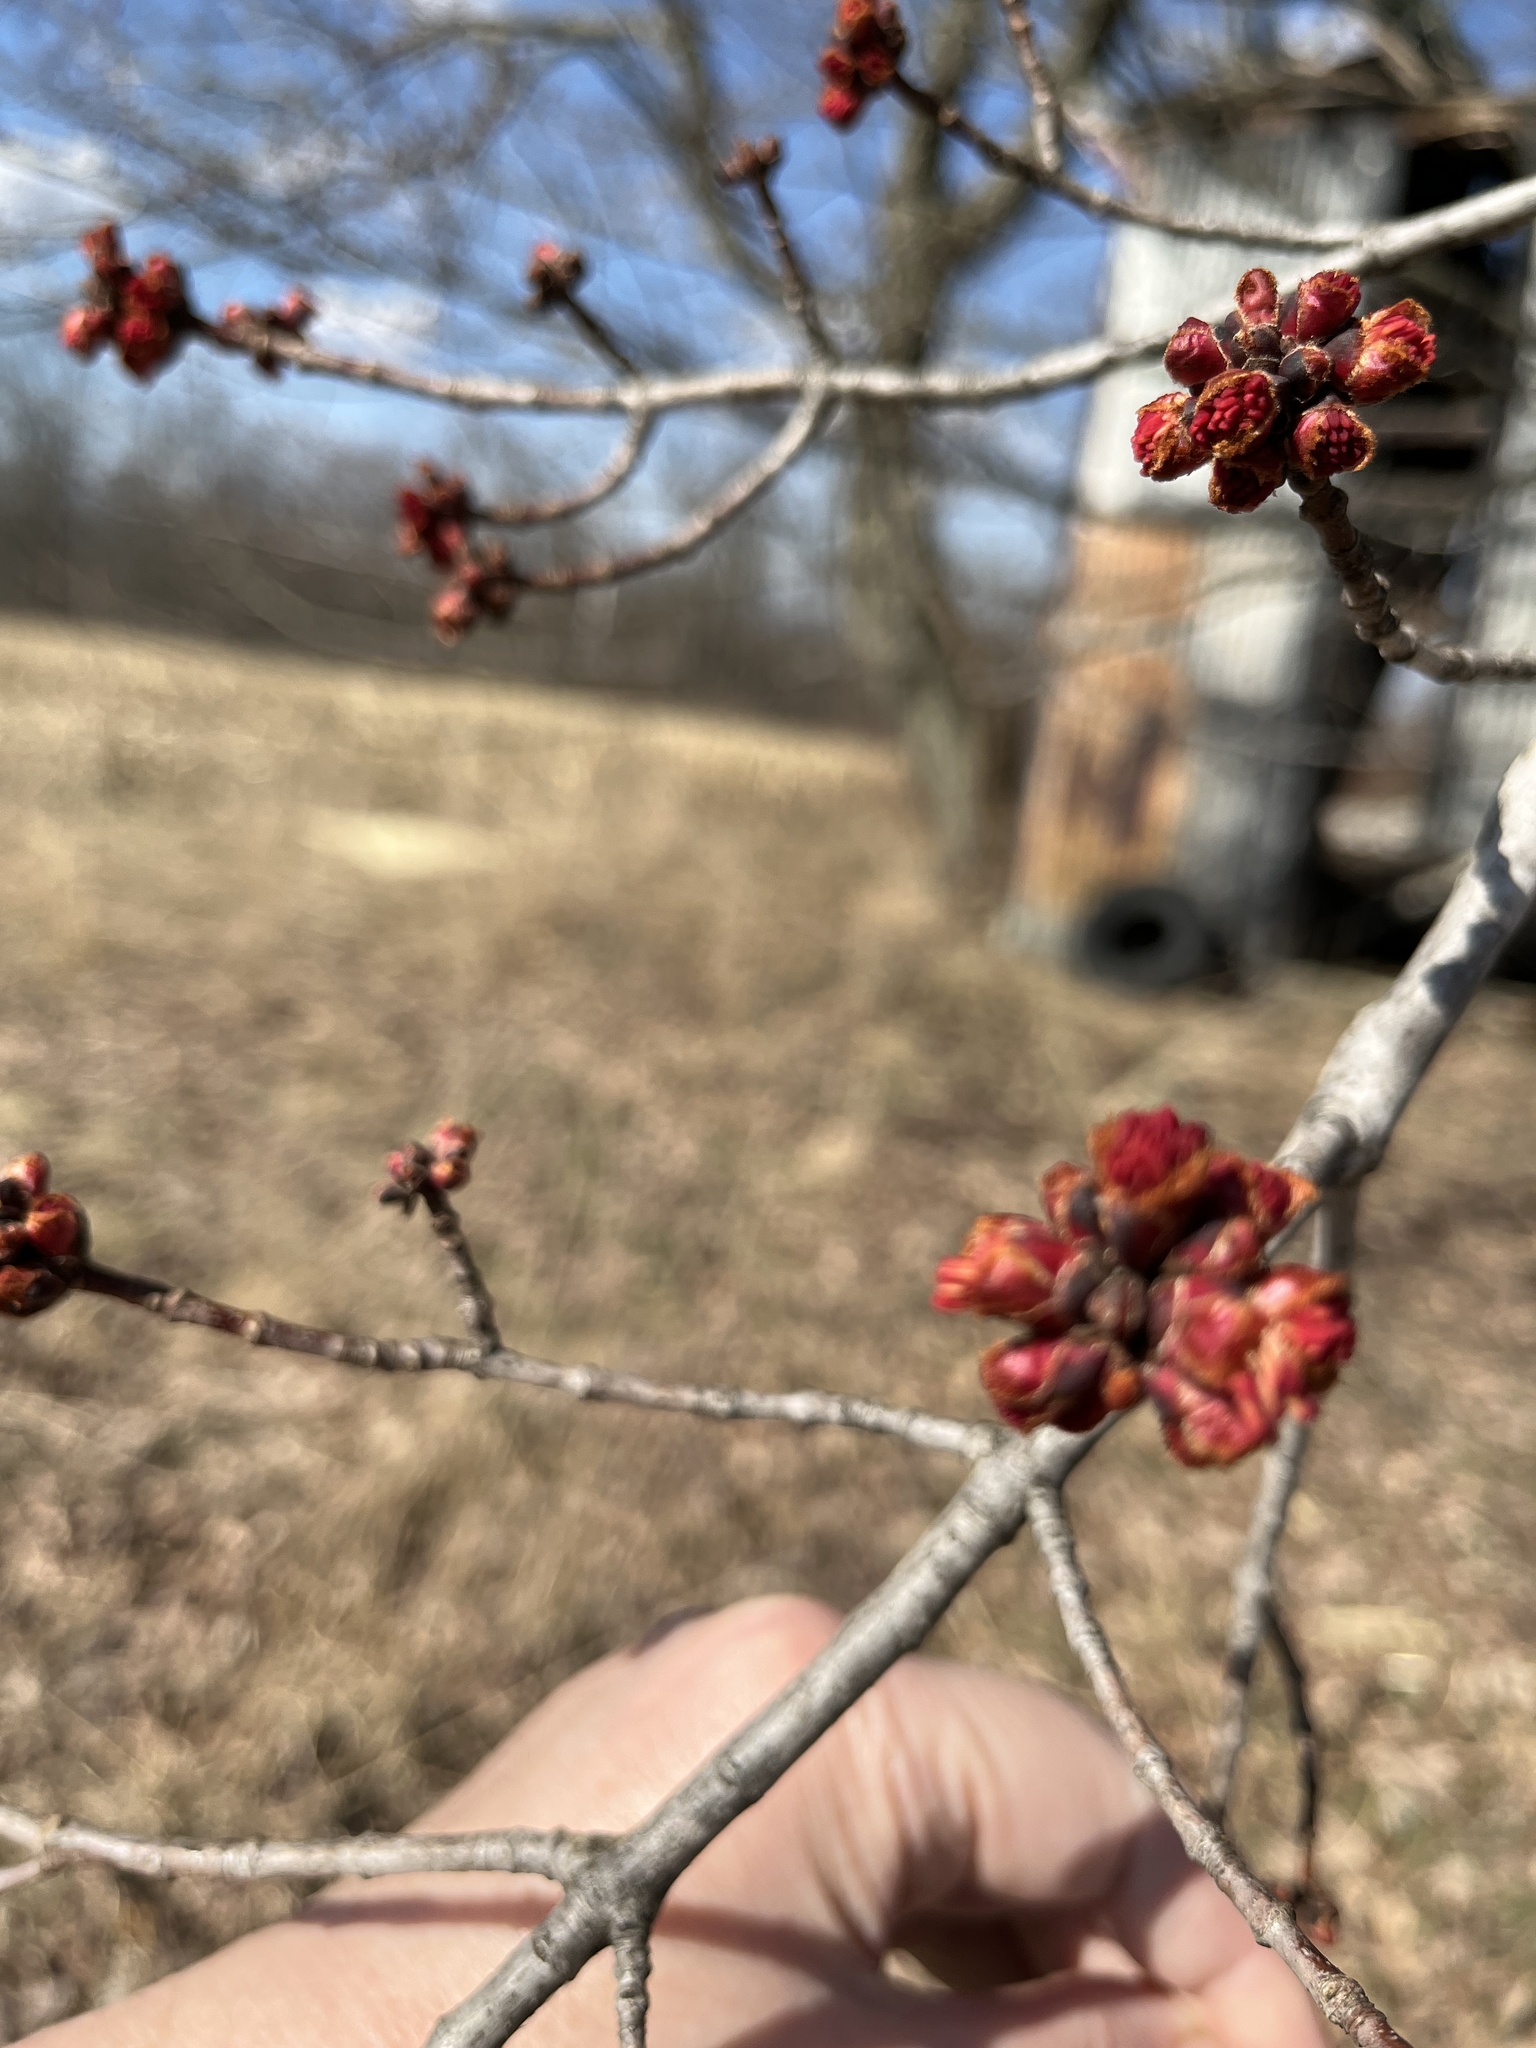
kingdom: Plantae
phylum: Tracheophyta
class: Magnoliopsida
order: Sapindales
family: Sapindaceae
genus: Acer
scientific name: Acer rubrum
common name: Red maple
